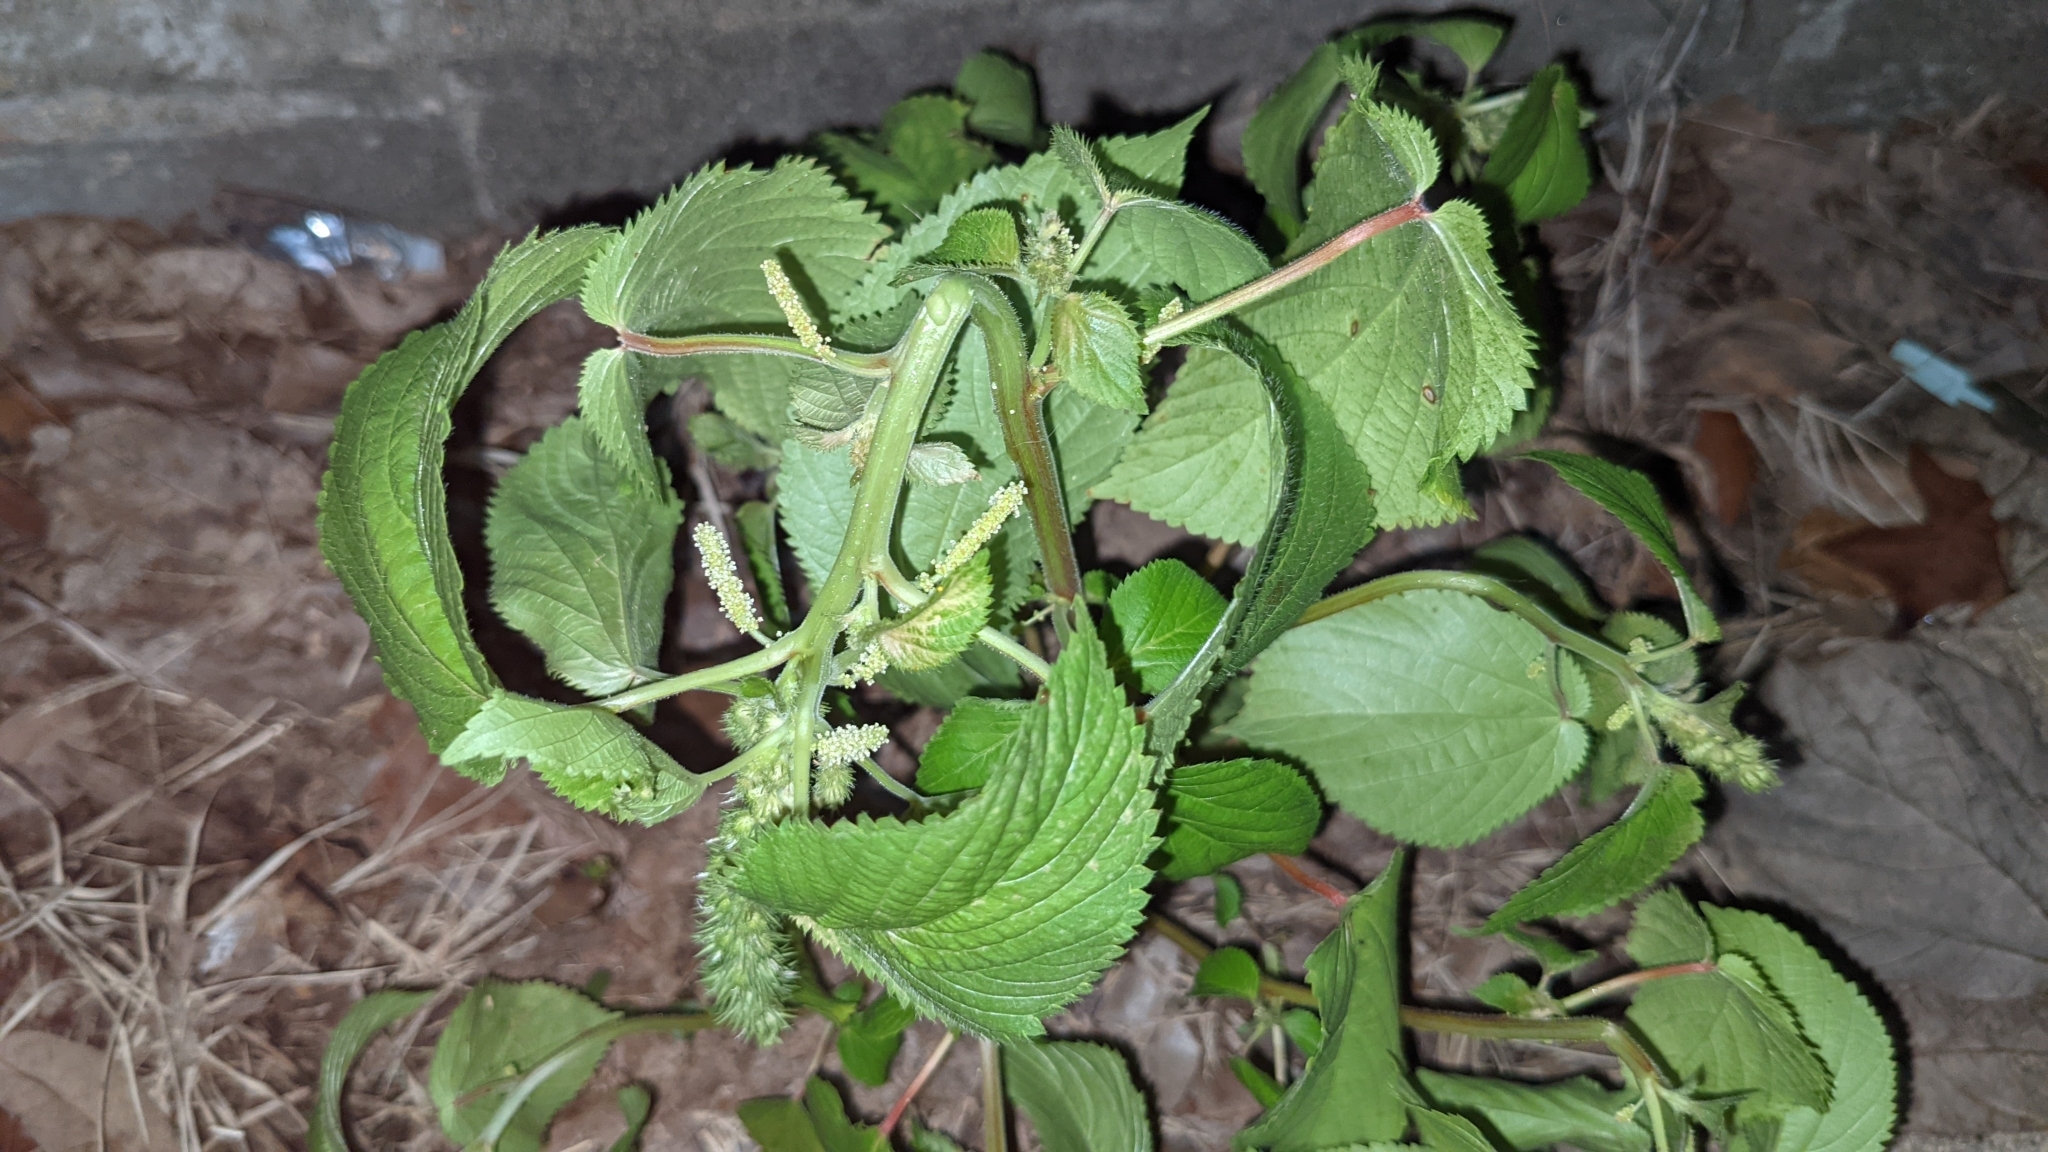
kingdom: Plantae
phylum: Tracheophyta
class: Magnoliopsida
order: Malpighiales
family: Euphorbiaceae
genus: Acalypha
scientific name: Acalypha ostryifolia
